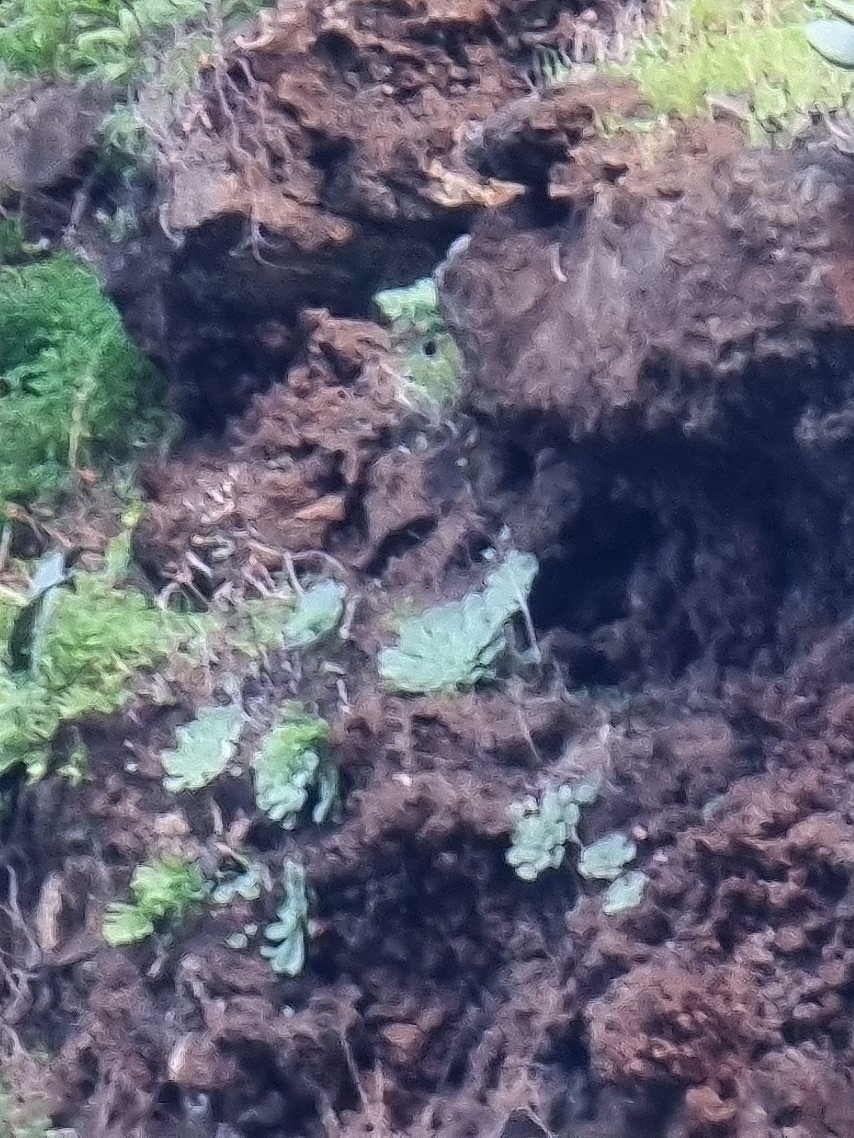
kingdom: Plantae
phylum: Tracheophyta
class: Magnoliopsida
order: Saxifragales
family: Crassulaceae
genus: Aeonium
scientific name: Aeonium glandulosum
